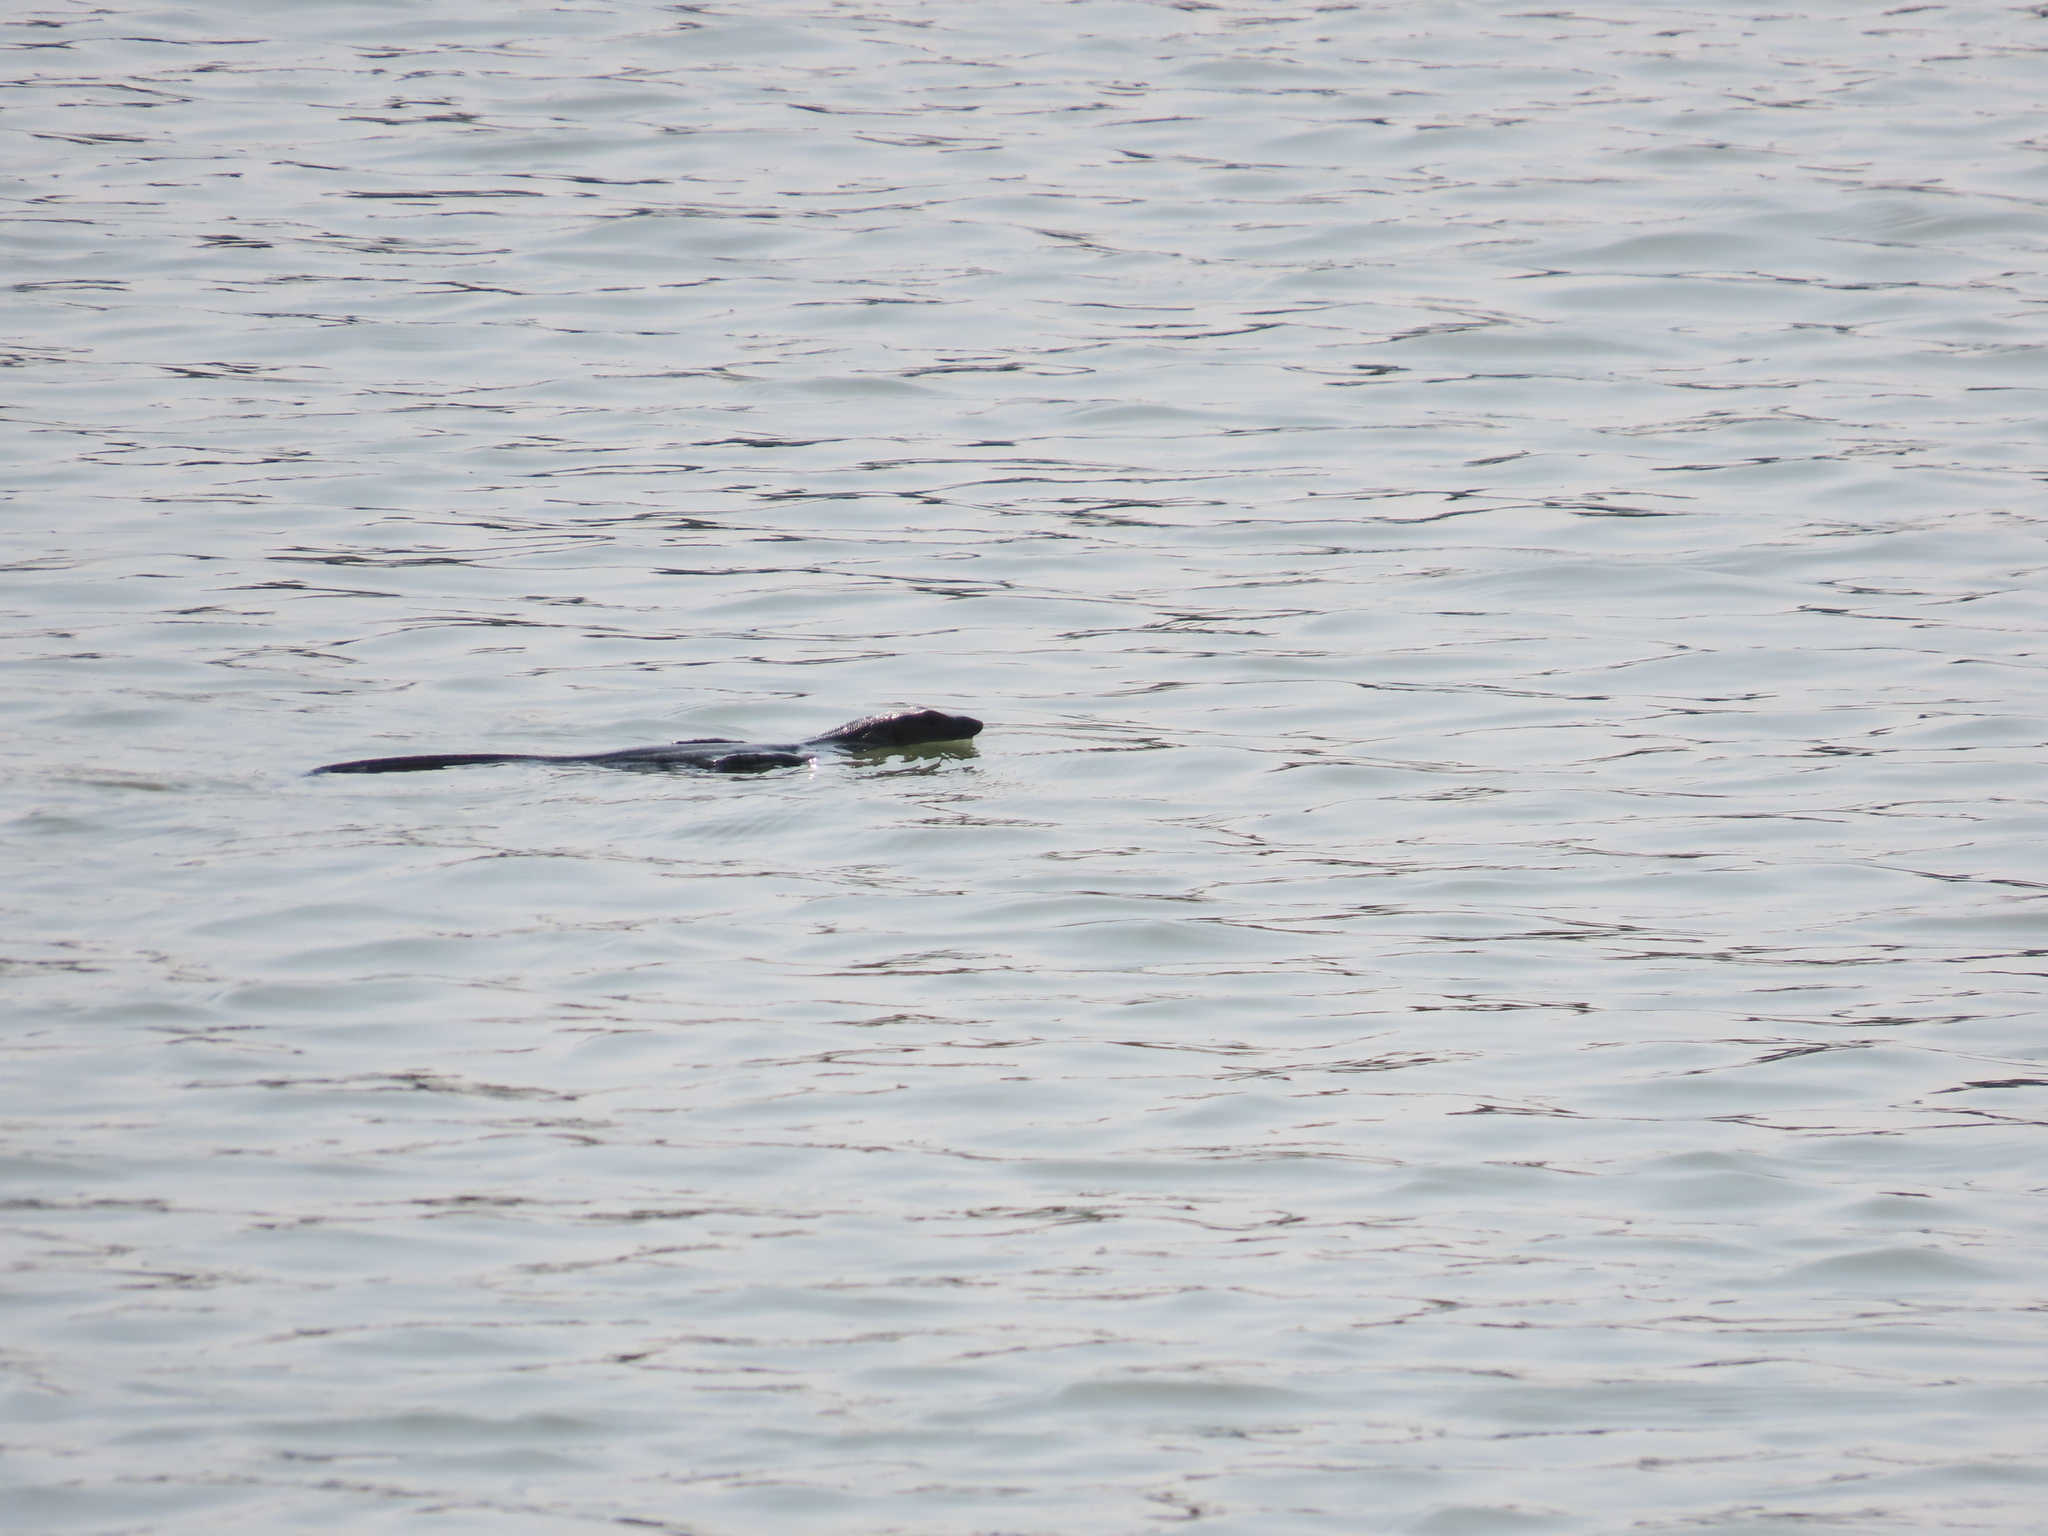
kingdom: Animalia
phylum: Chordata
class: Squamata
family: Varanidae
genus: Varanus
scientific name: Varanus salvator
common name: Common water monitor
